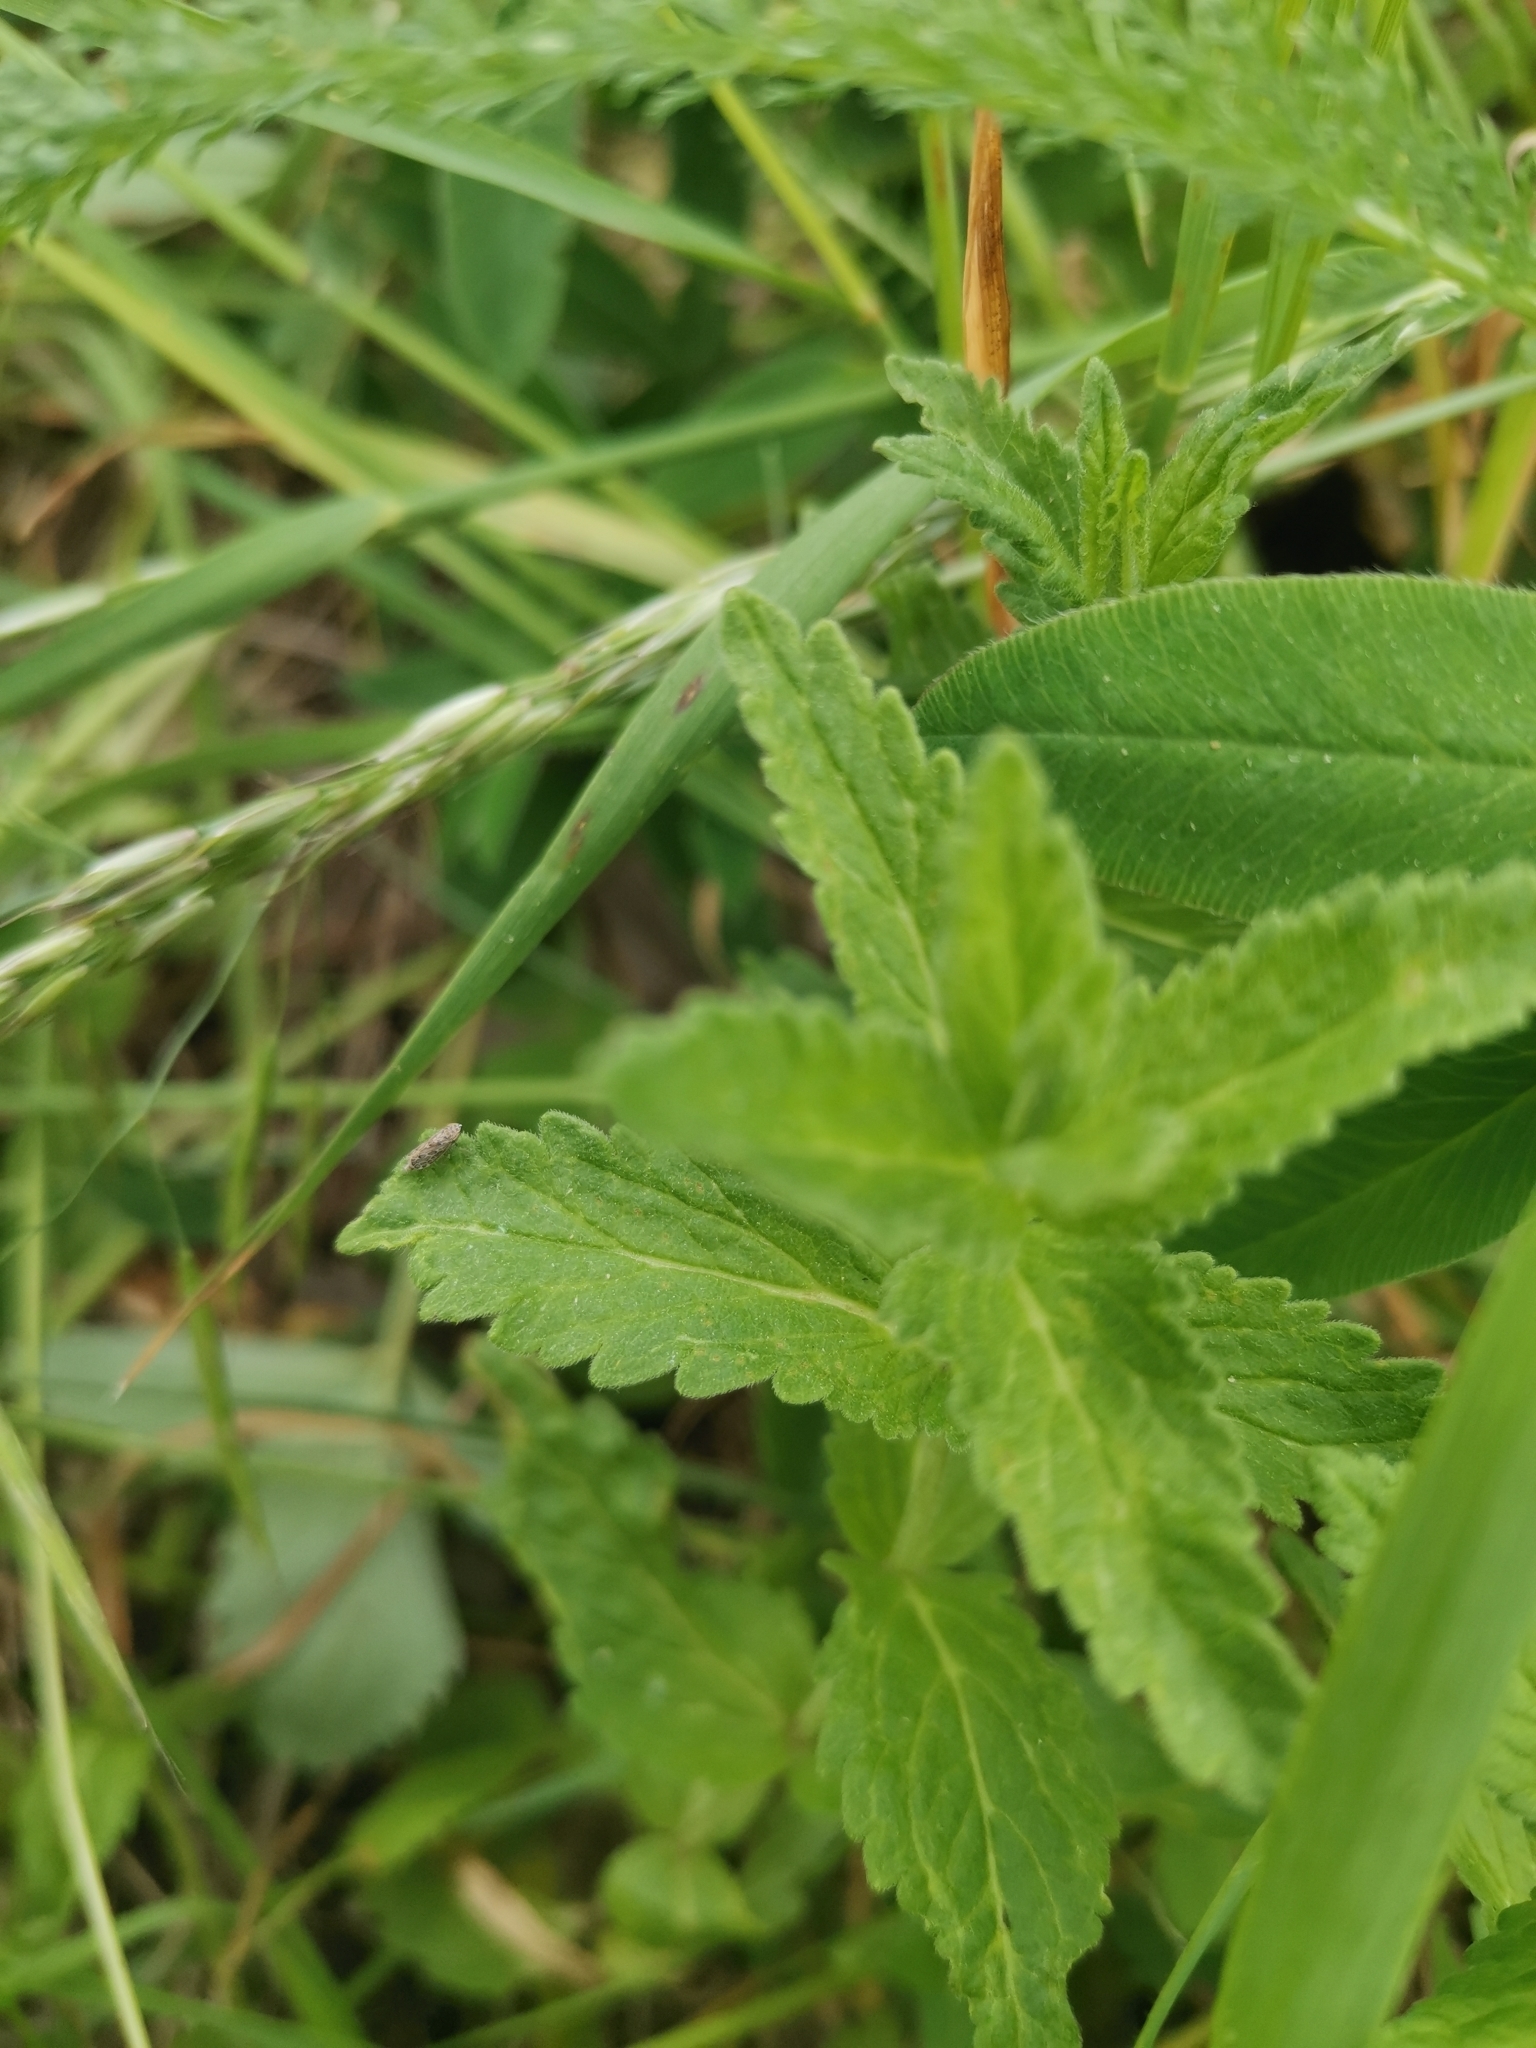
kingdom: Plantae
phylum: Tracheophyta
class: Magnoliopsida
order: Lamiales
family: Plantaginaceae
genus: Veronica
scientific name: Veronica teucrium
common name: Large speedwell
